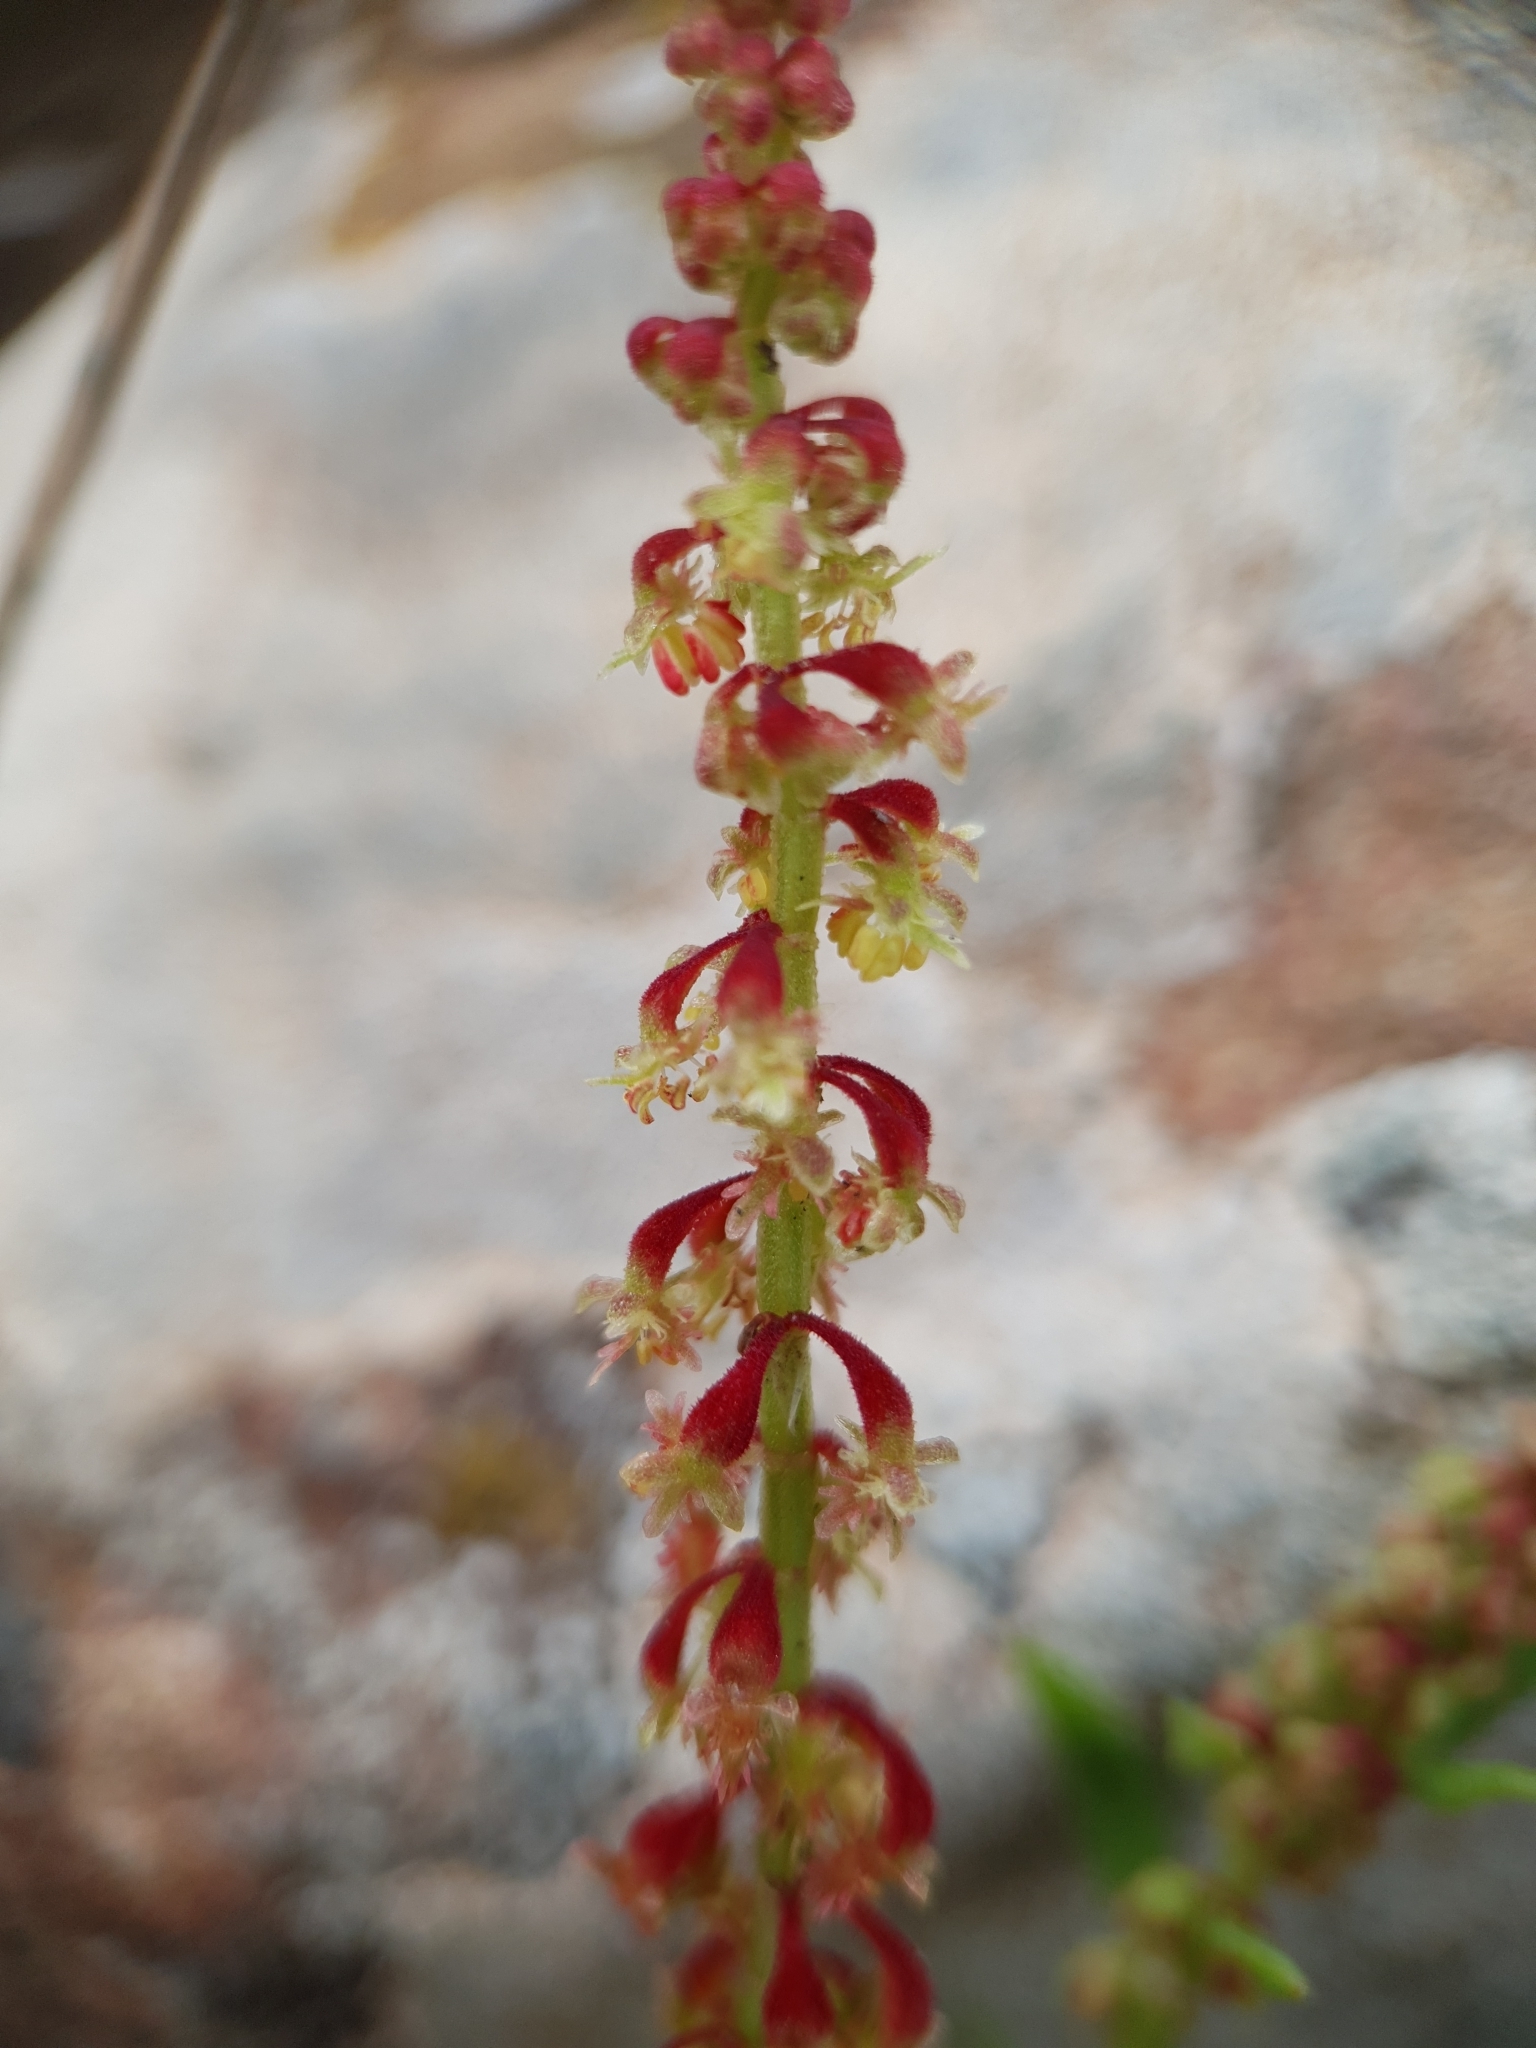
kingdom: Plantae
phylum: Tracheophyta
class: Magnoliopsida
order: Caryophyllales
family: Polygonaceae
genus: Rumex
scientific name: Rumex bucephalophorus
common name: Red dock
